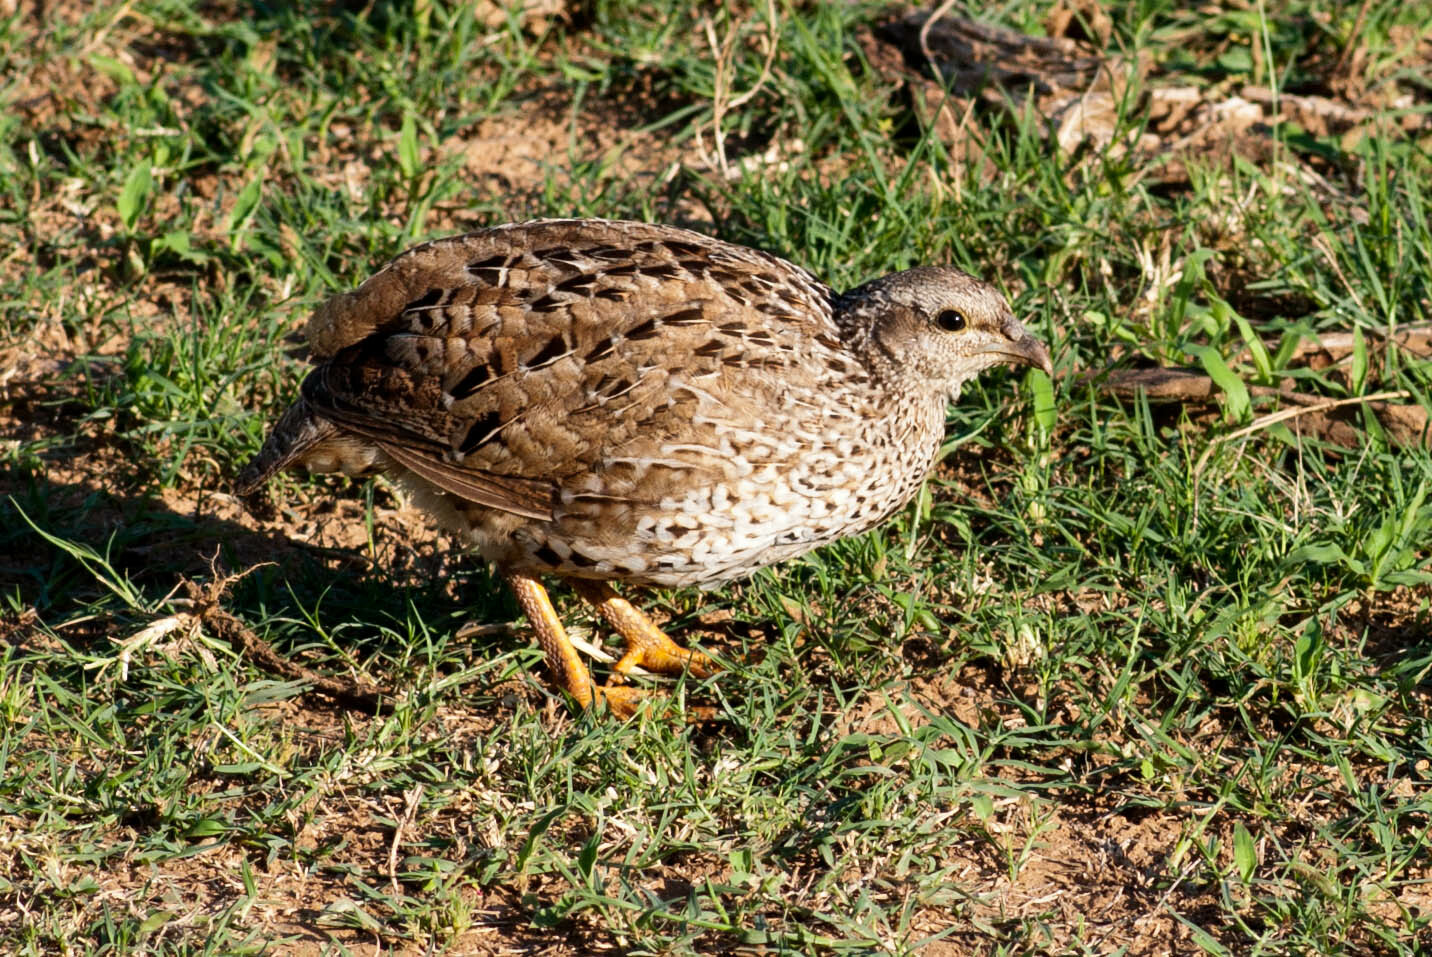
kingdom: Animalia
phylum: Chordata
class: Aves
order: Galliformes
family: Phasianidae
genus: Pternistis
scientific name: Pternistis natalensis
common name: Natal spurfowl
